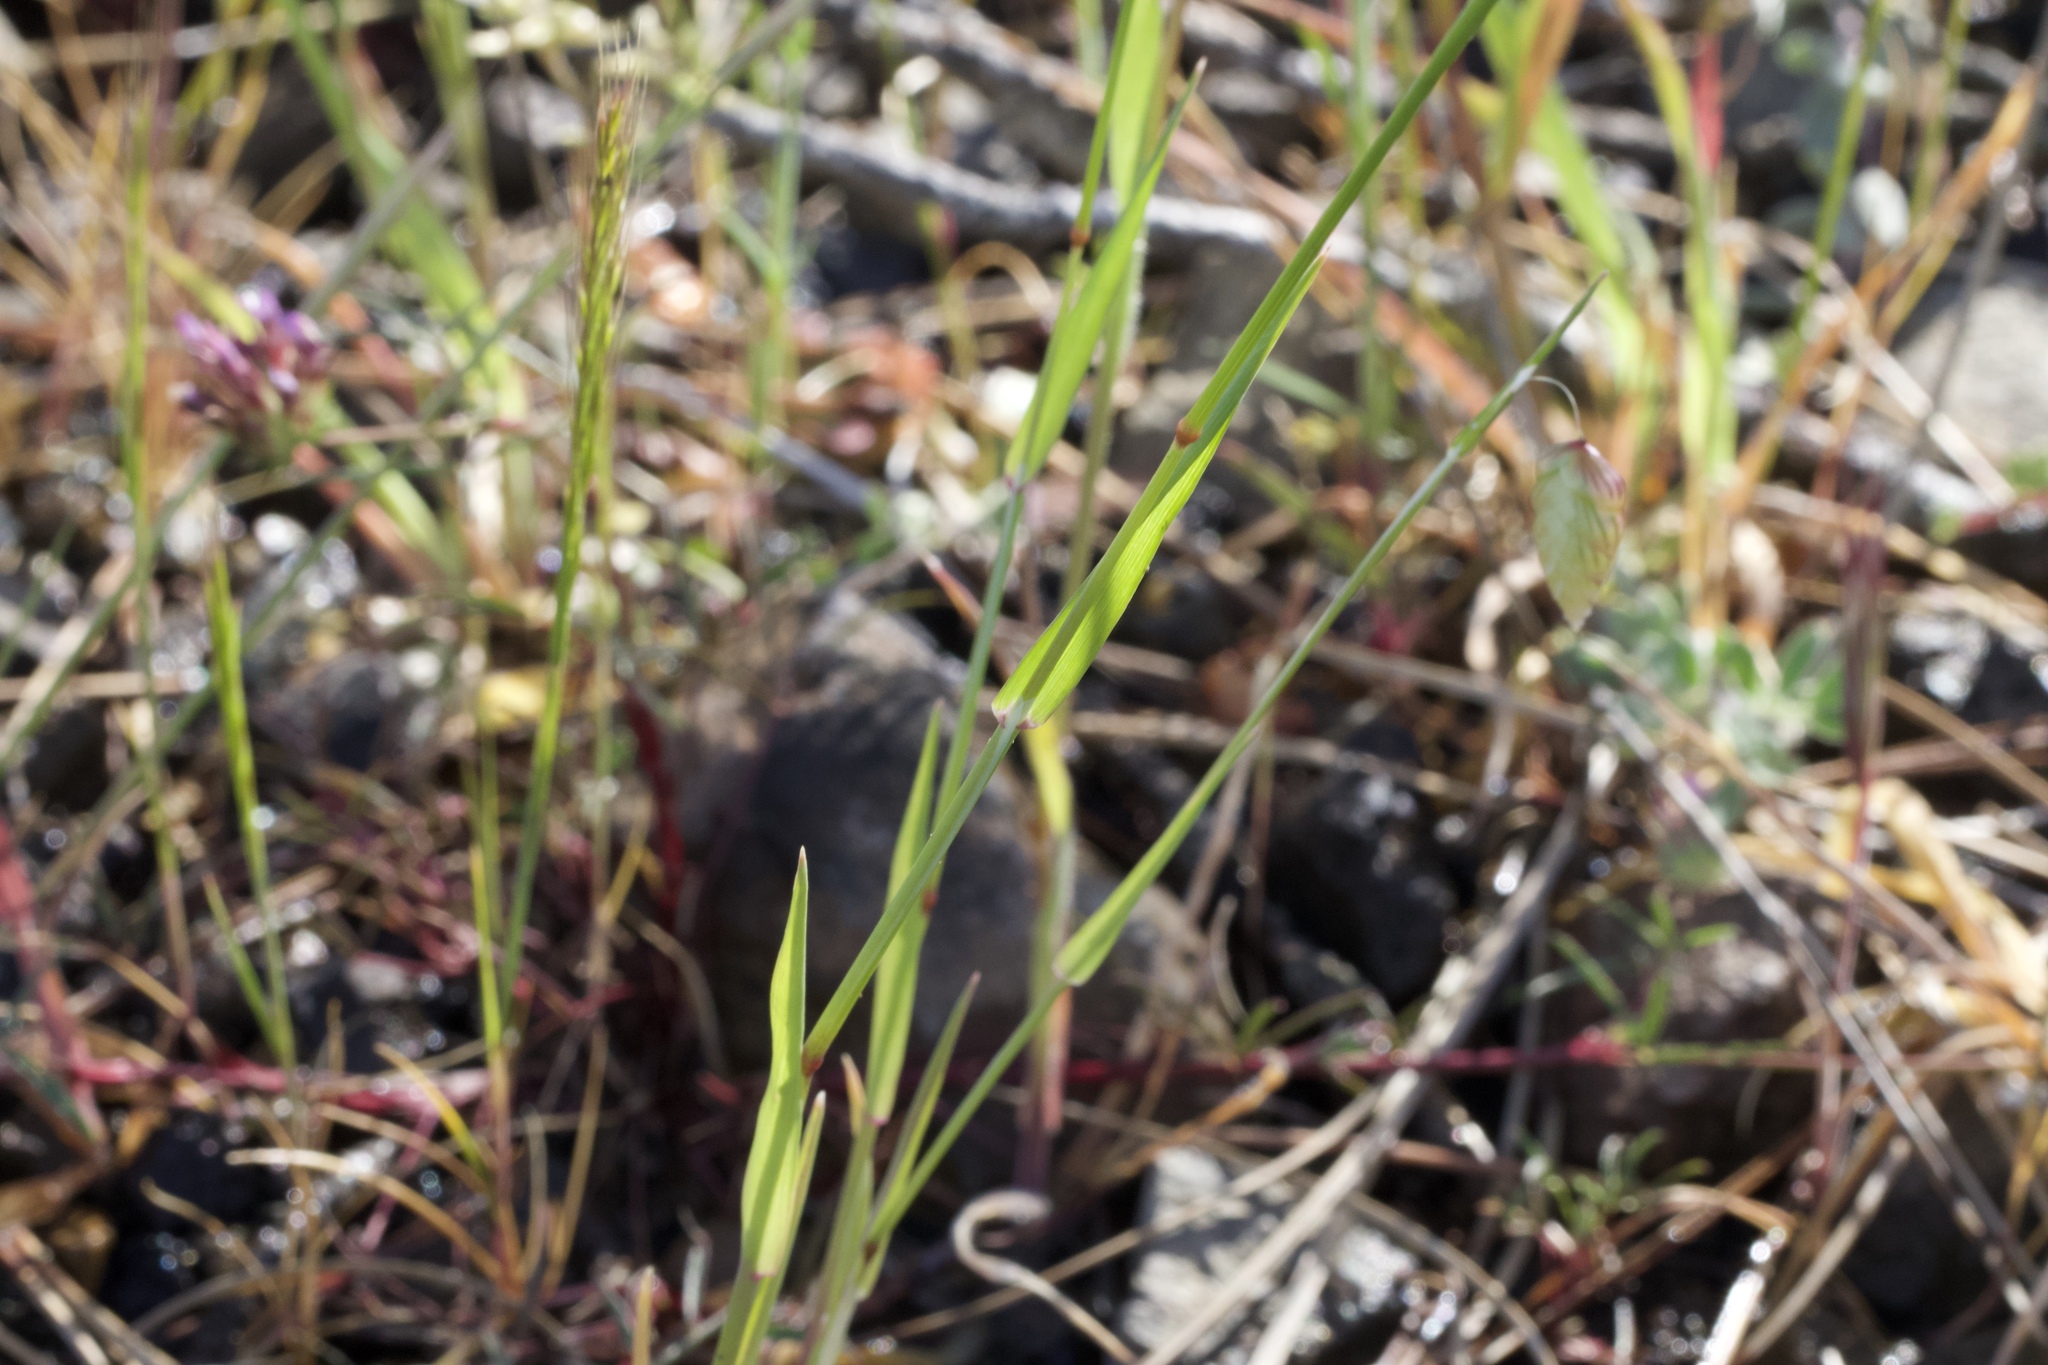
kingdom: Plantae
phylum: Tracheophyta
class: Liliopsida
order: Poales
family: Poaceae
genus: Briza
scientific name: Briza maxima
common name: Big quakinggrass
